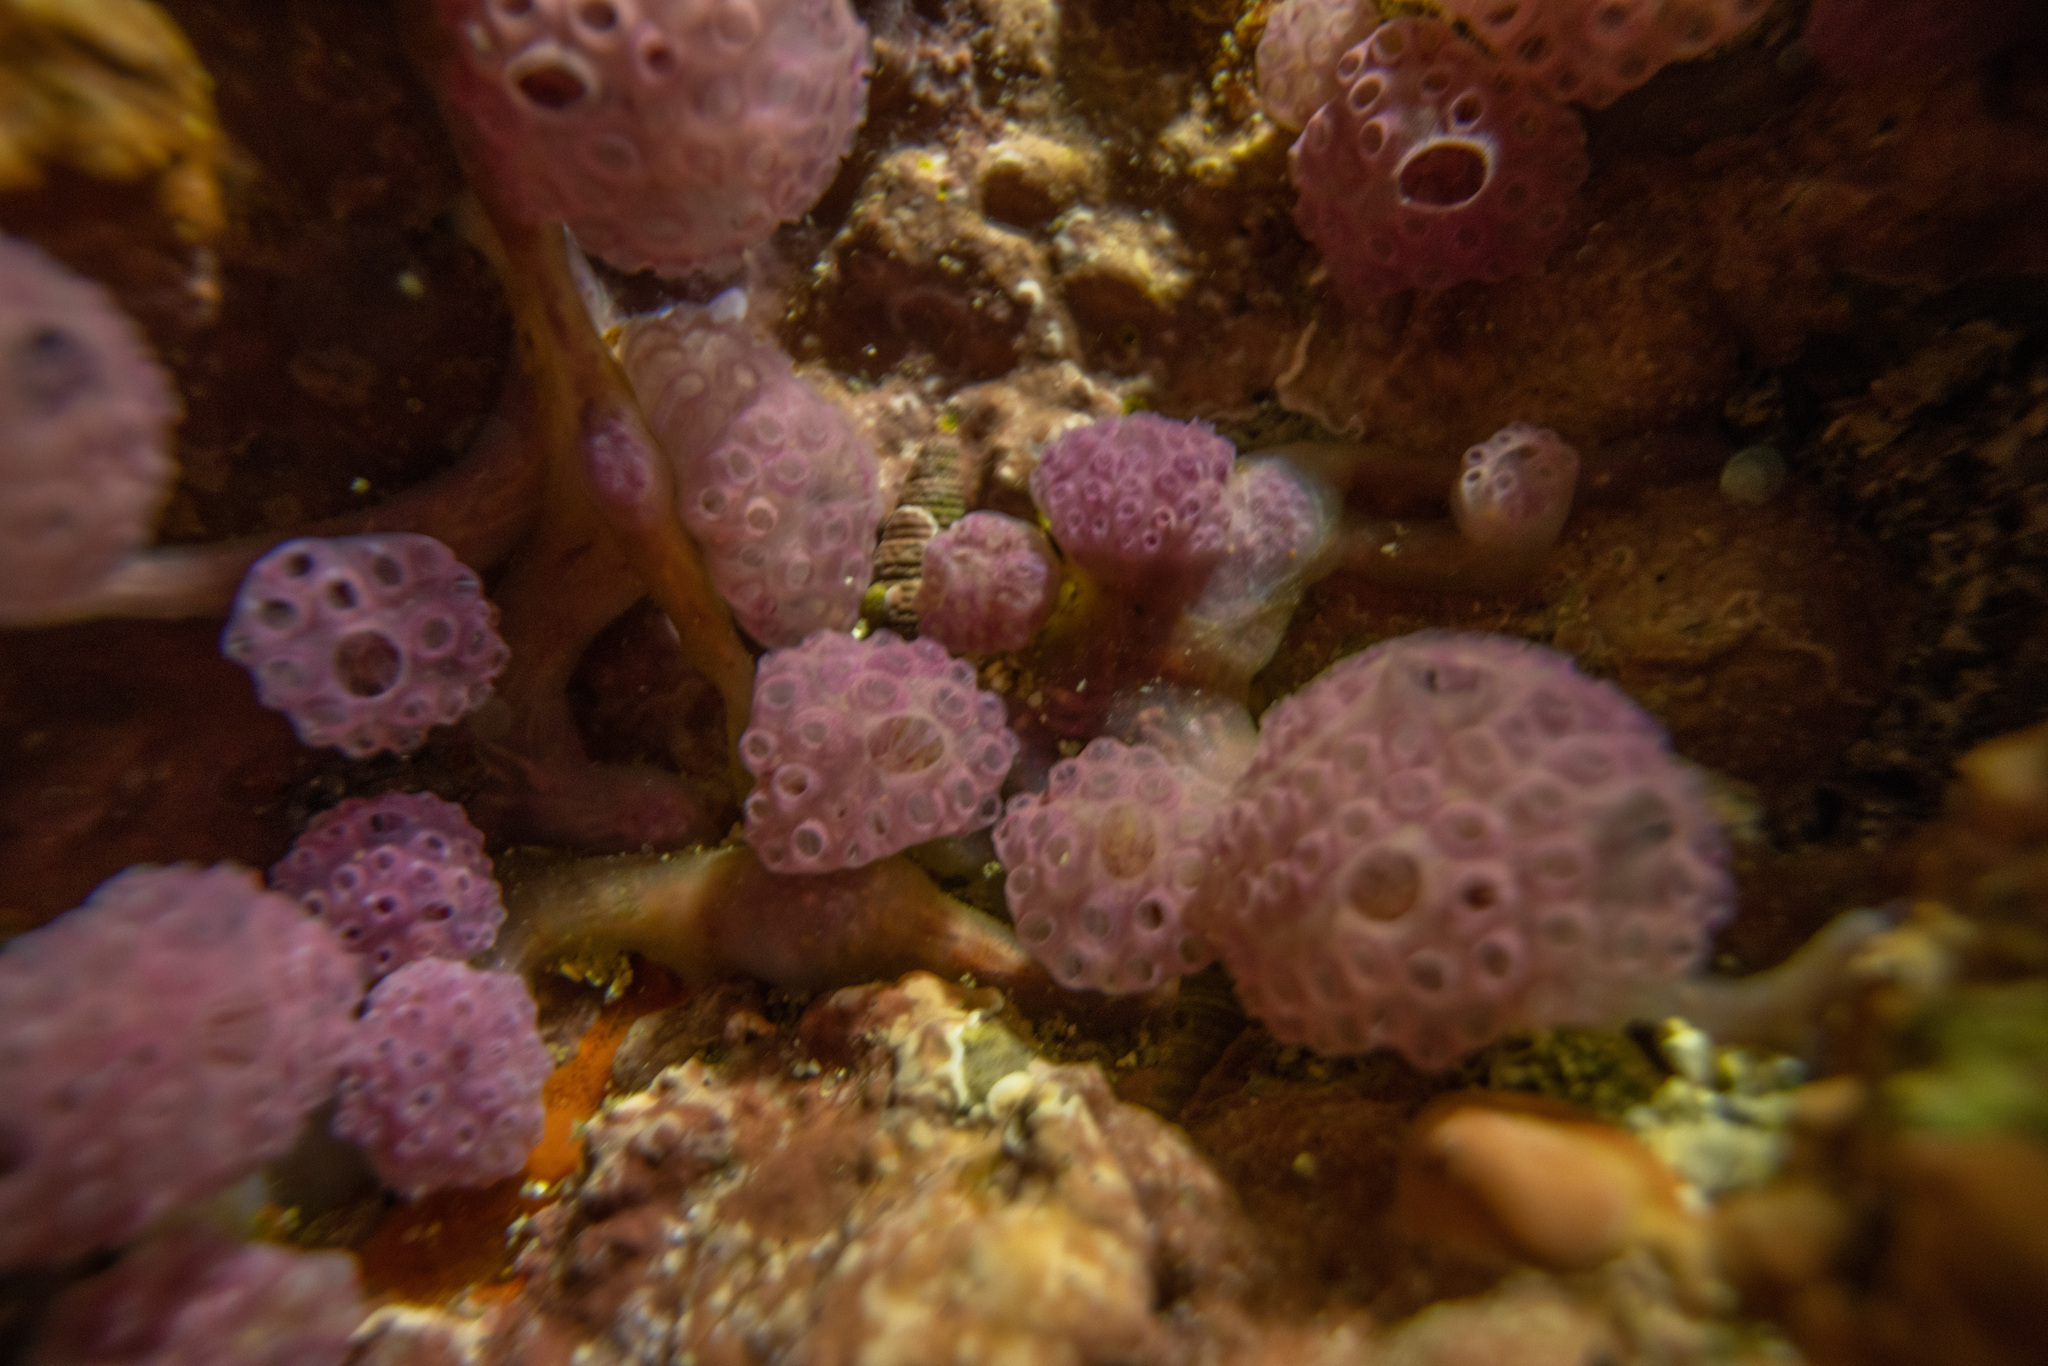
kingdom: Animalia
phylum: Chordata
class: Ascidiacea
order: Aplousobranchia
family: Holozoidae
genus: Hypsistozoa
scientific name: Hypsistozoa fasmeriana
